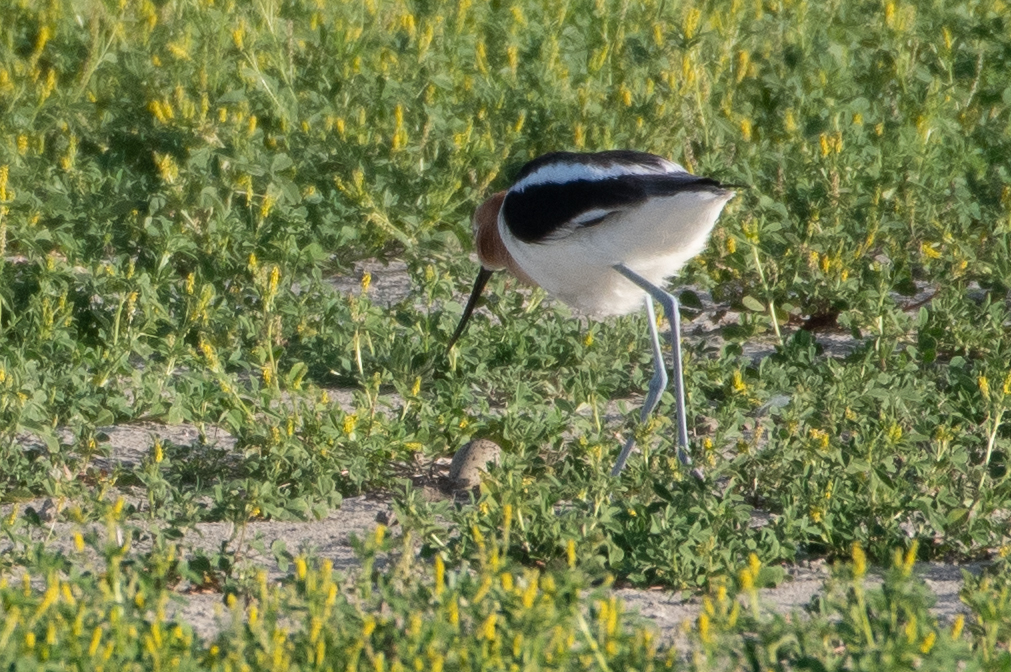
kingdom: Animalia
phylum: Chordata
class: Aves
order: Charadriiformes
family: Recurvirostridae
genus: Recurvirostra
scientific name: Recurvirostra americana
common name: American avocet
